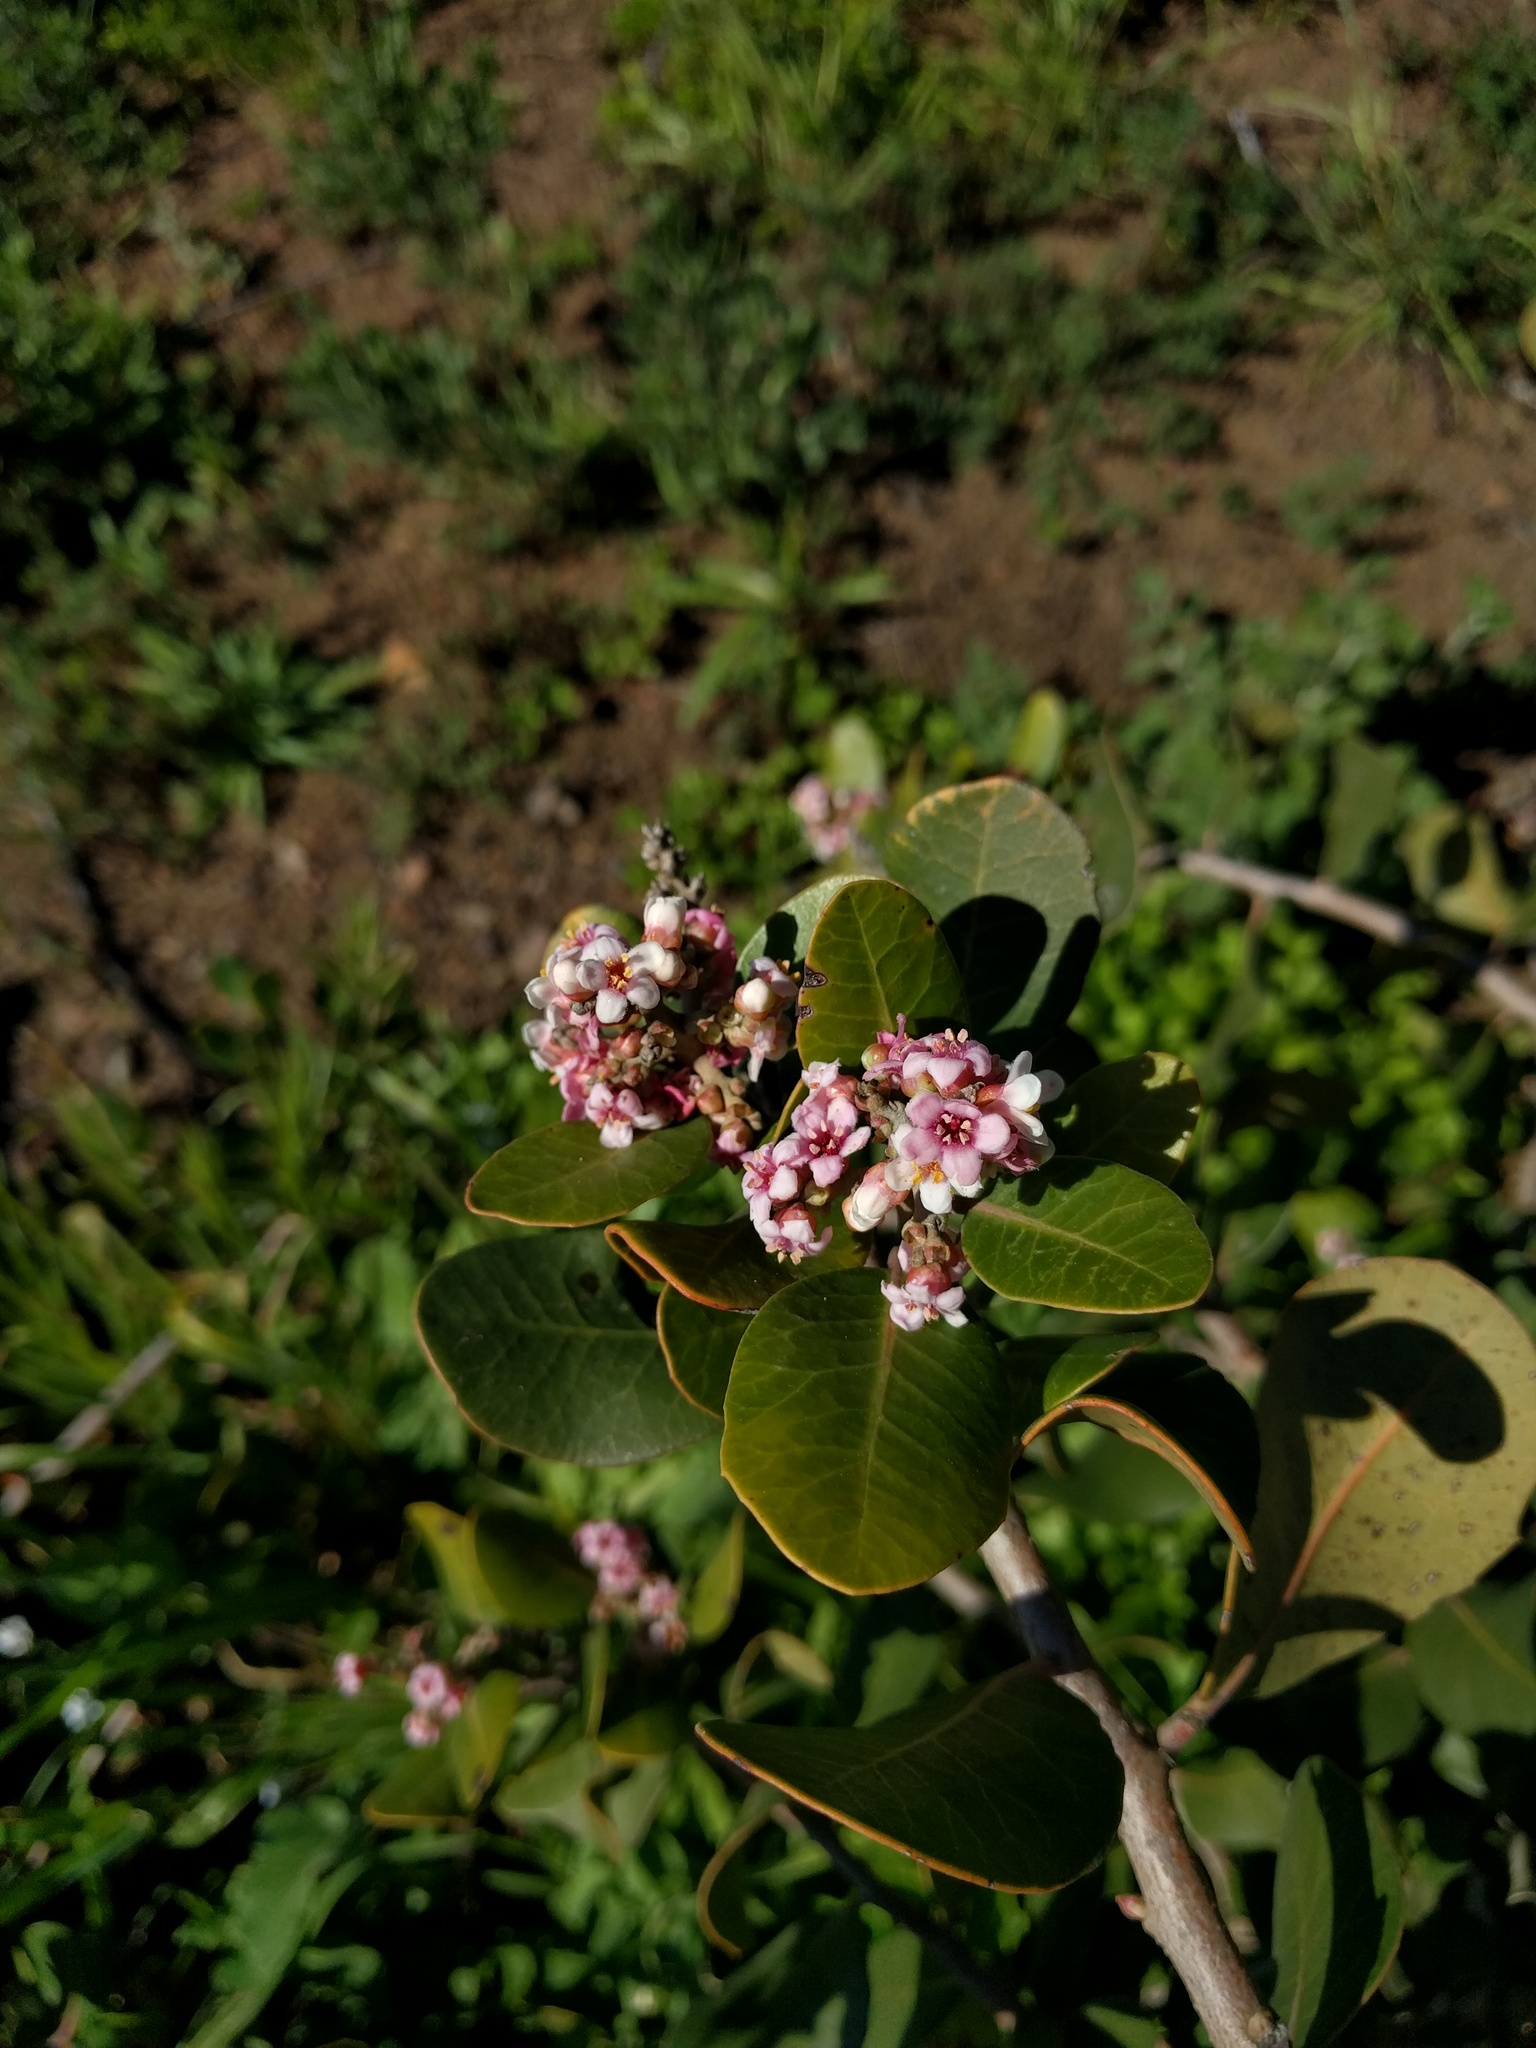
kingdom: Plantae
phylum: Tracheophyta
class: Magnoliopsida
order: Sapindales
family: Anacardiaceae
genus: Rhus
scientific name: Rhus integrifolia
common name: Lemonade sumac
